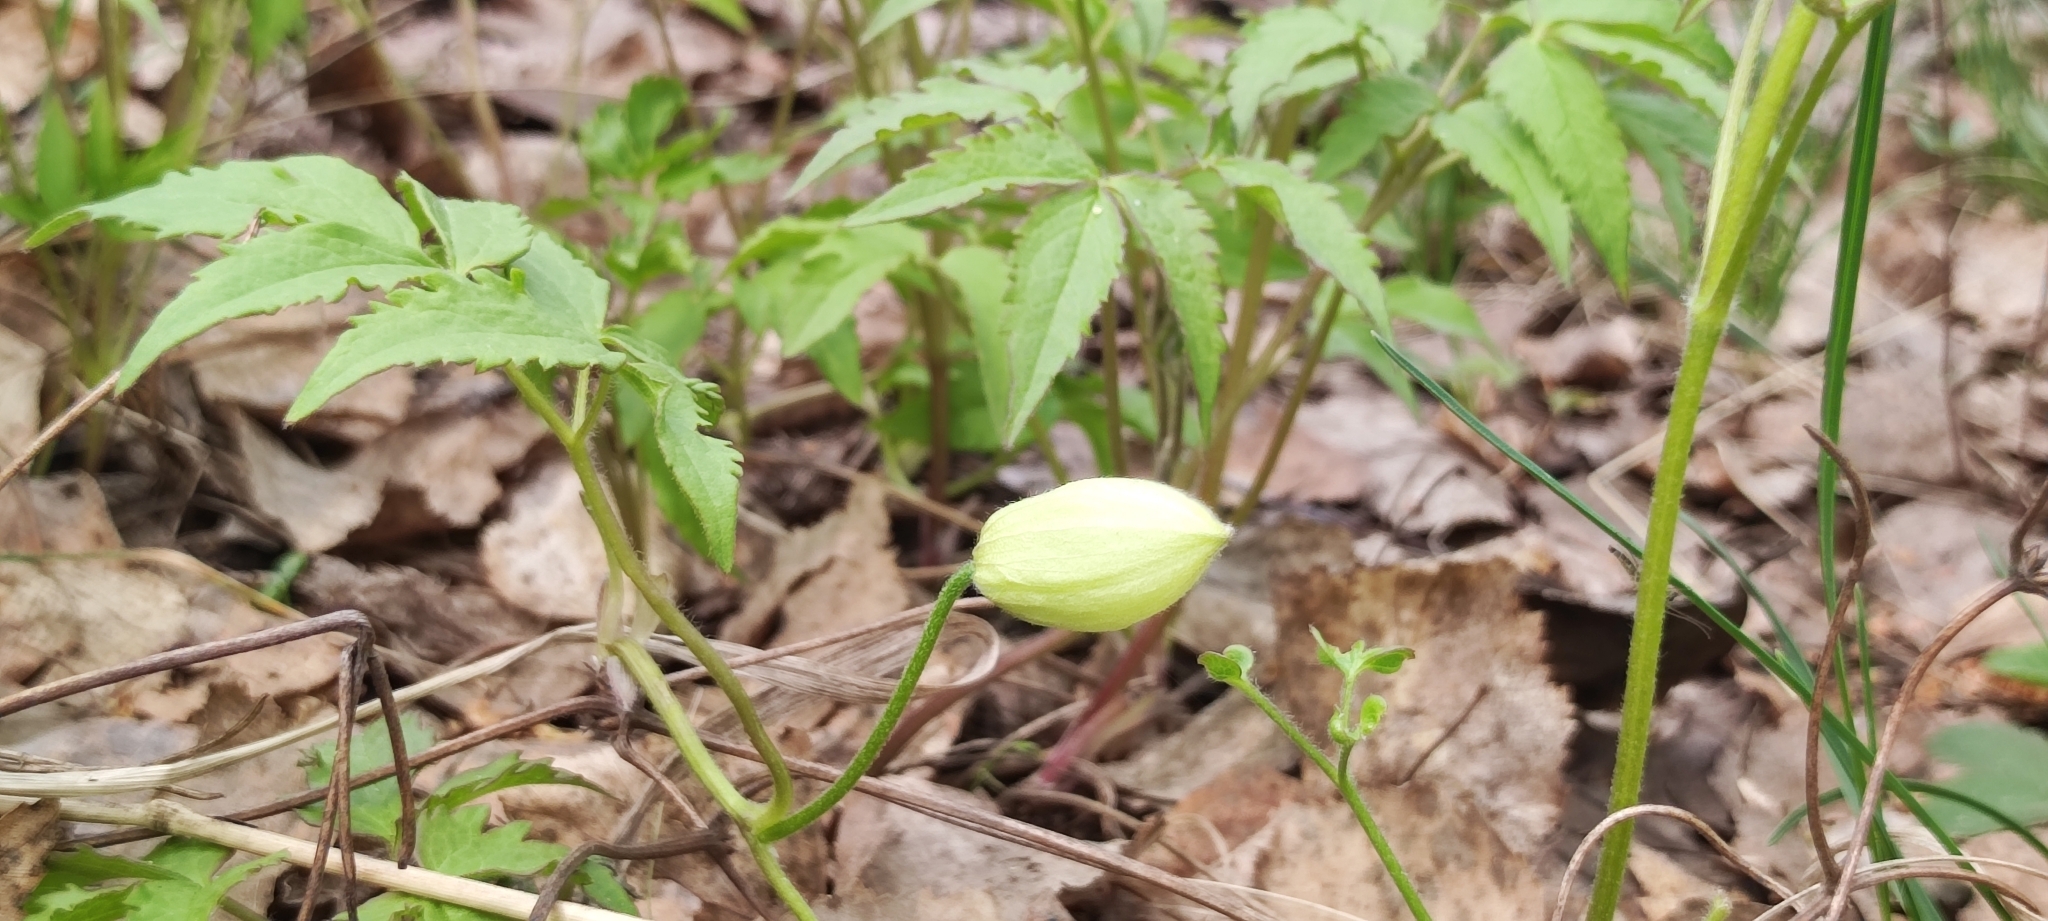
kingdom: Plantae
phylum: Tracheophyta
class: Magnoliopsida
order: Ranunculales
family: Ranunculaceae
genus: Clematis
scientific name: Clematis sibirica
